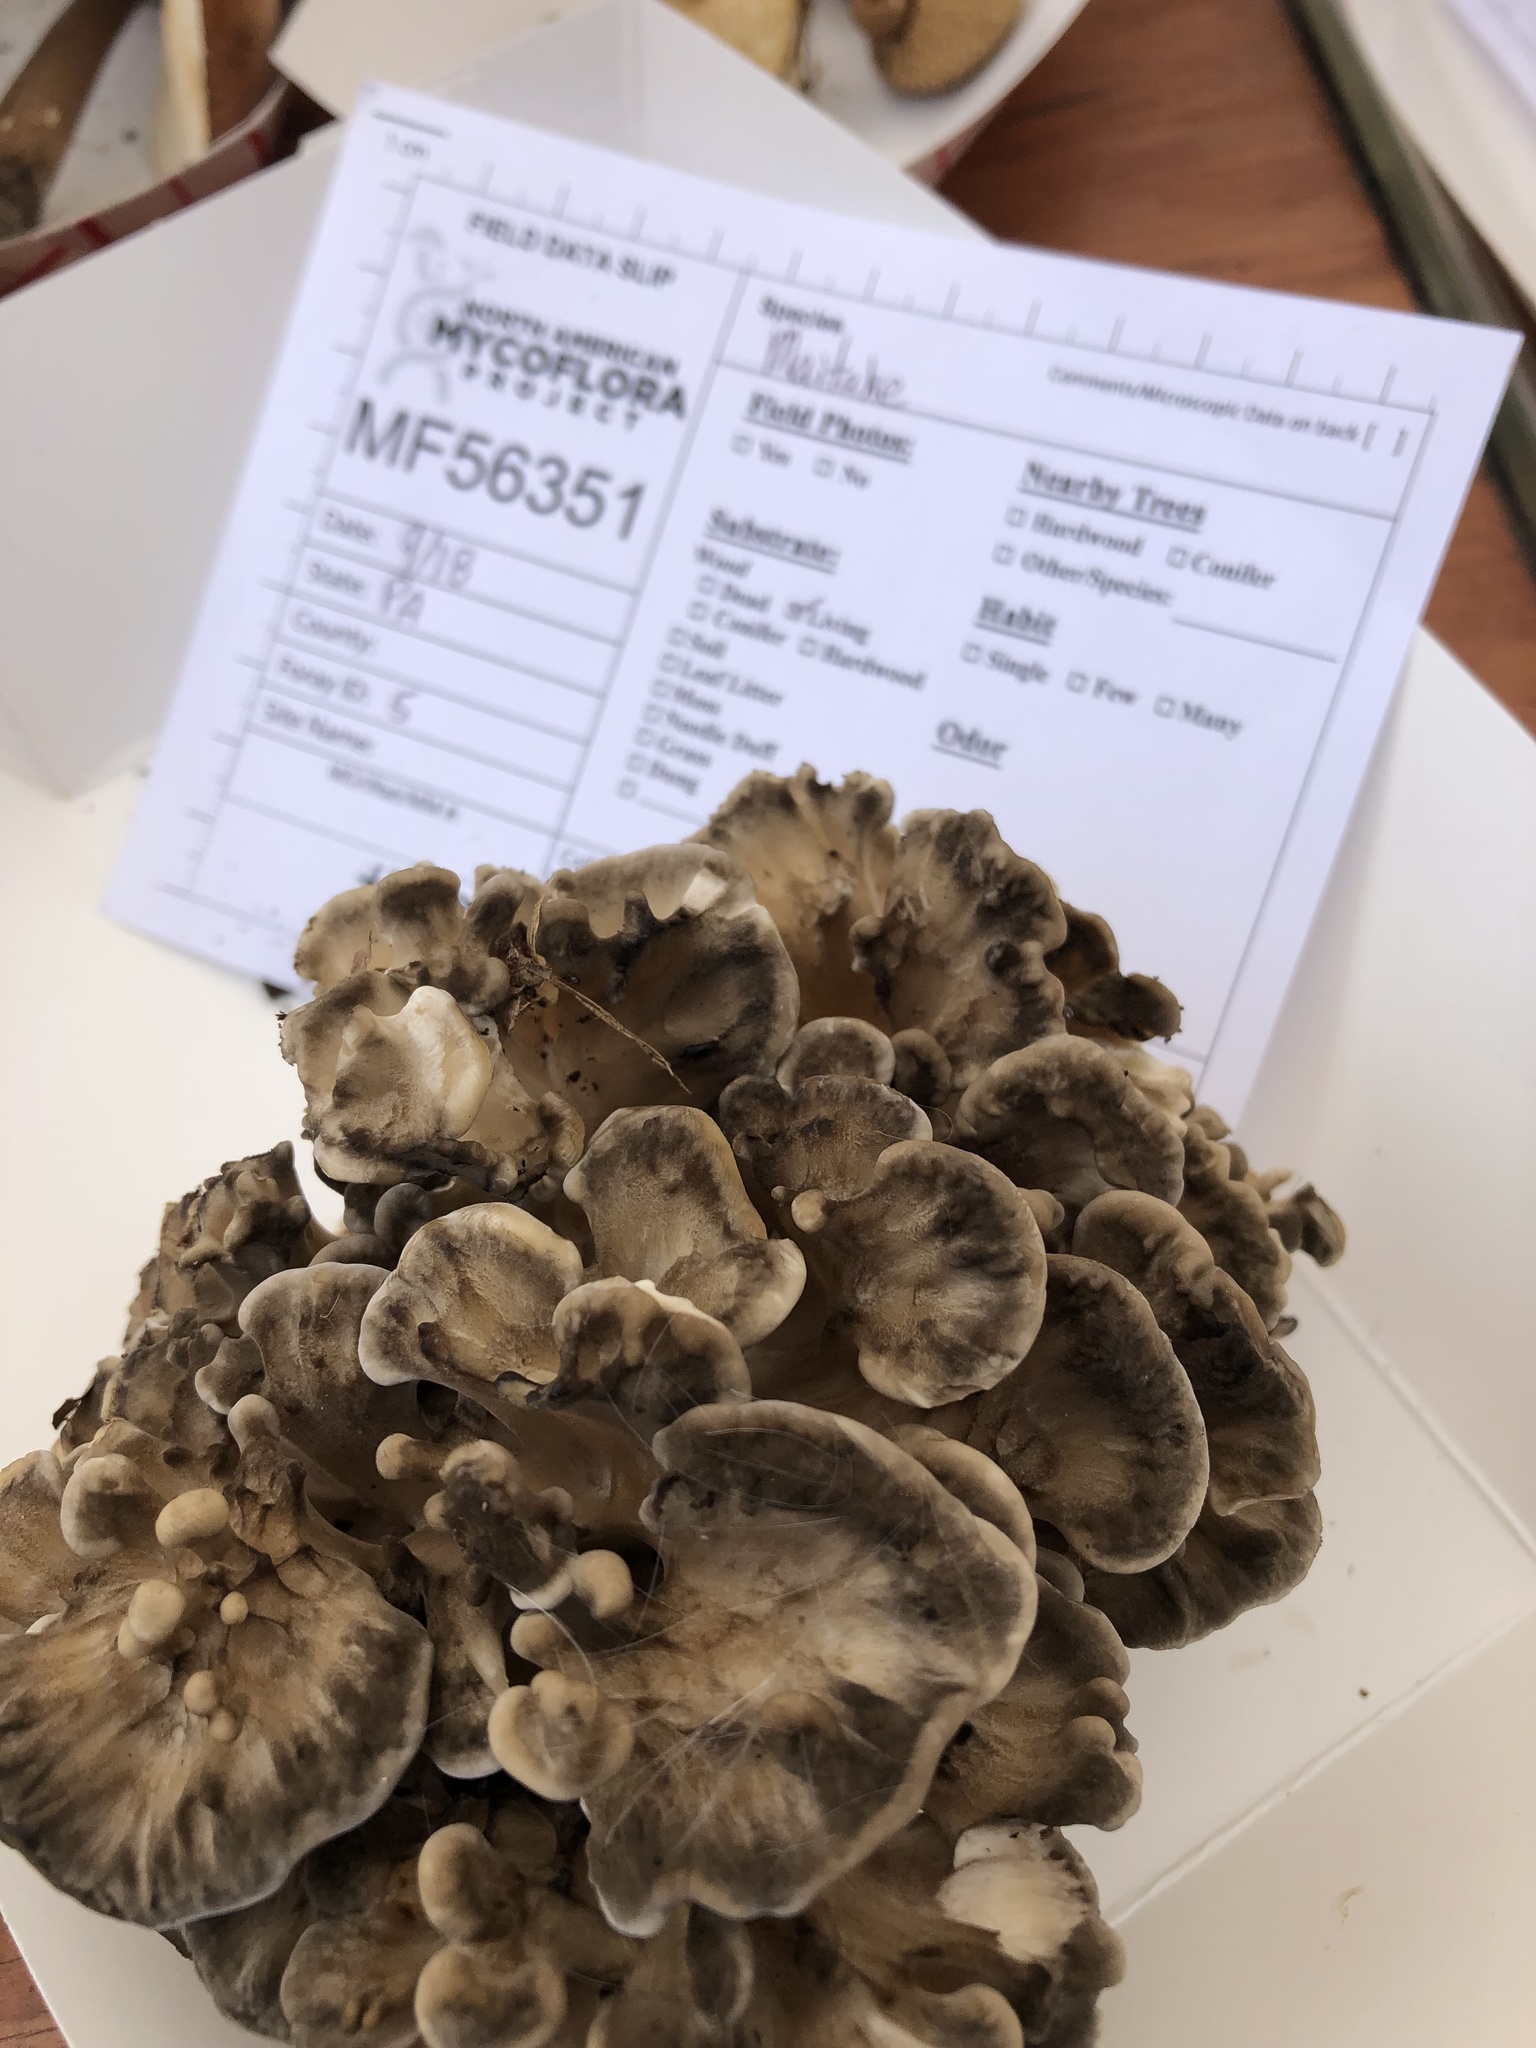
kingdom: Fungi
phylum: Basidiomycota
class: Agaricomycetes
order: Polyporales
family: Grifolaceae
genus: Grifola
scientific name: Grifola frondosa
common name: Hen of the woods
